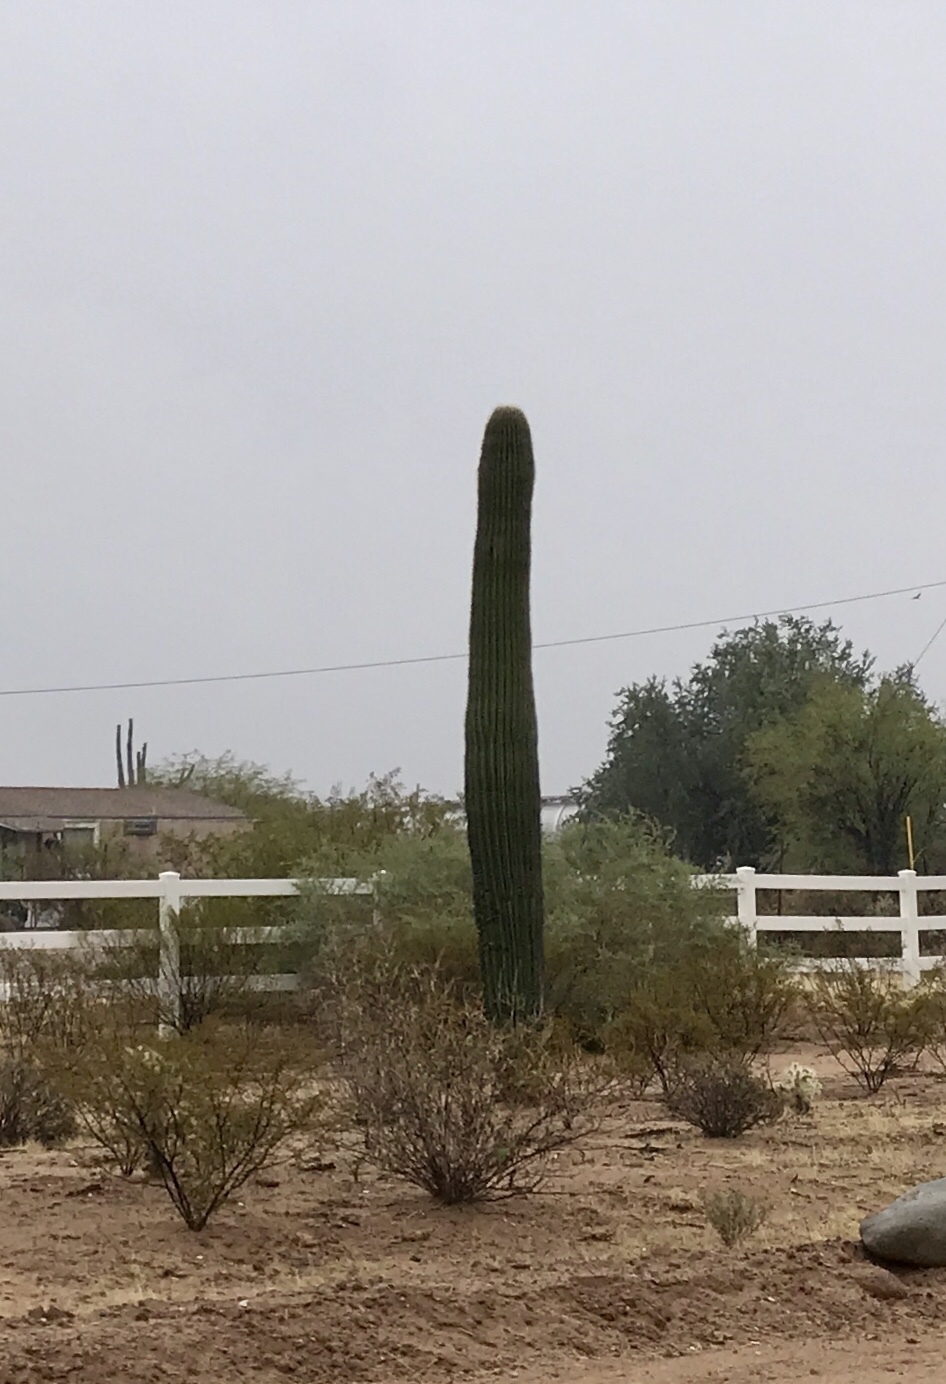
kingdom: Plantae
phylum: Tracheophyta
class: Magnoliopsida
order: Caryophyllales
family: Cactaceae
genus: Carnegiea
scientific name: Carnegiea gigantea
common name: Saguaro
